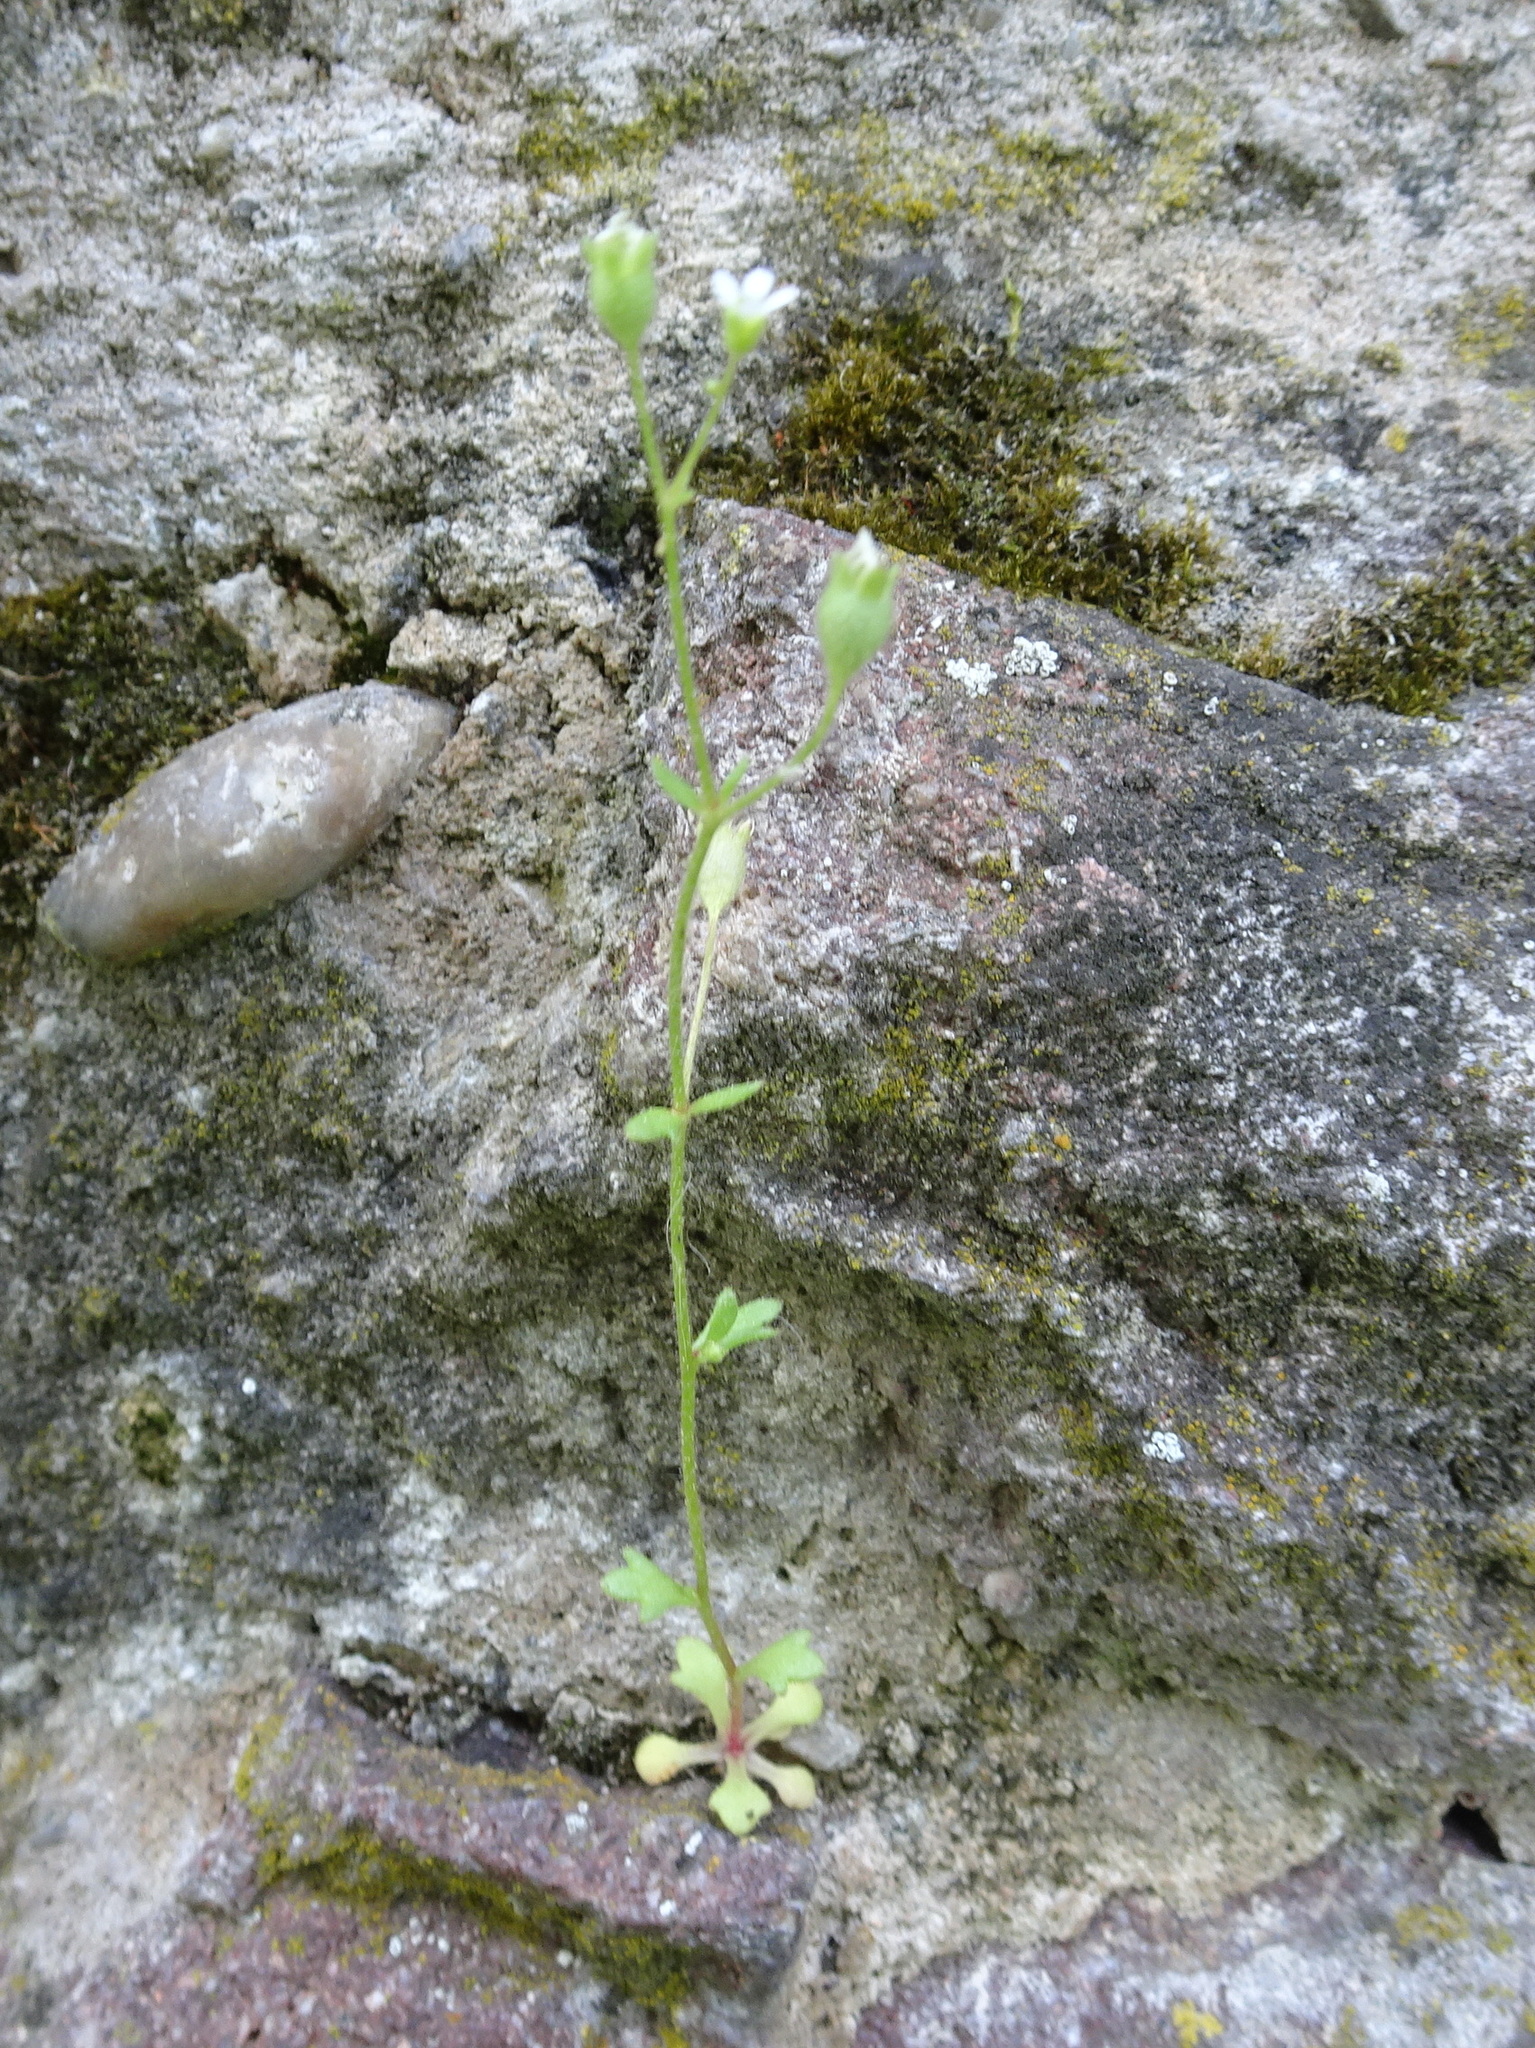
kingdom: Plantae
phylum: Tracheophyta
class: Magnoliopsida
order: Saxifragales
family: Saxifragaceae
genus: Saxifraga
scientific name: Saxifraga tridactylites
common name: Rue-leaved saxifrage
